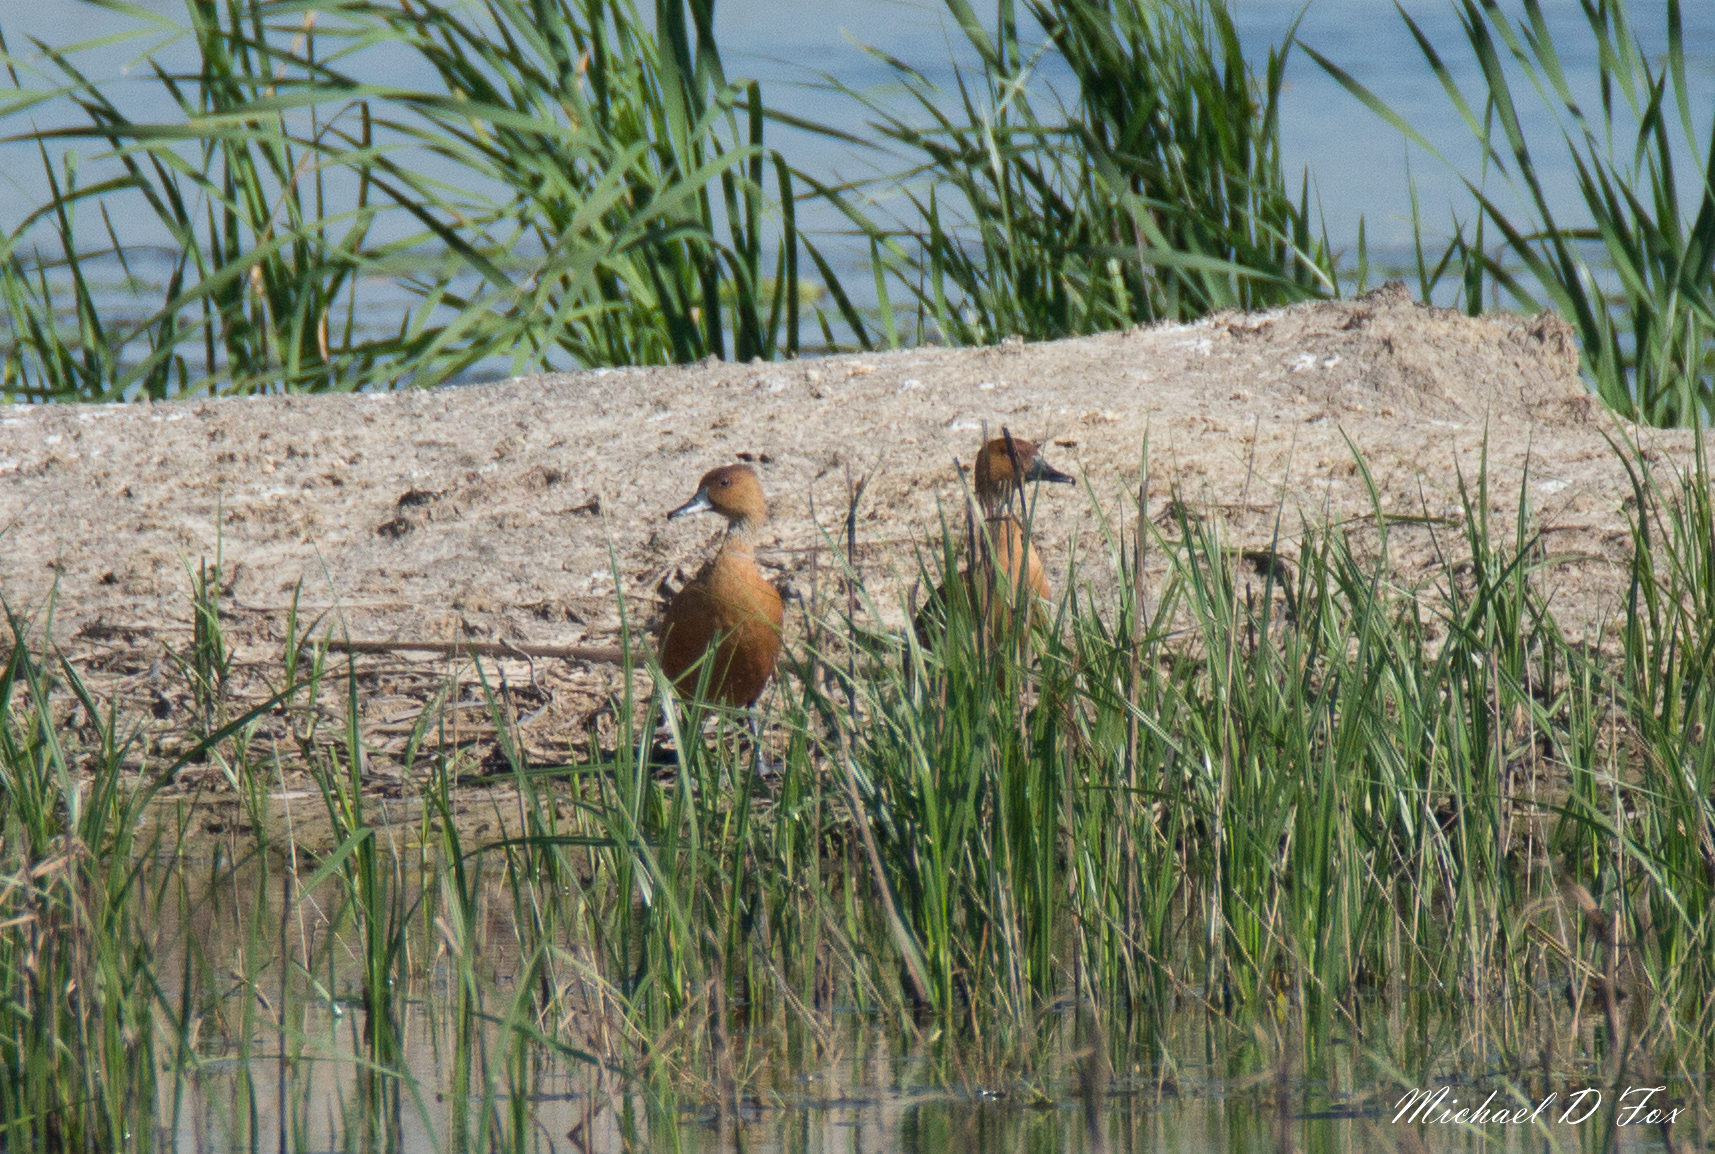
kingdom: Animalia
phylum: Chordata
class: Aves
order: Anseriformes
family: Anatidae
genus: Dendrocygna
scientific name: Dendrocygna bicolor
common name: Fulvous whistling duck
